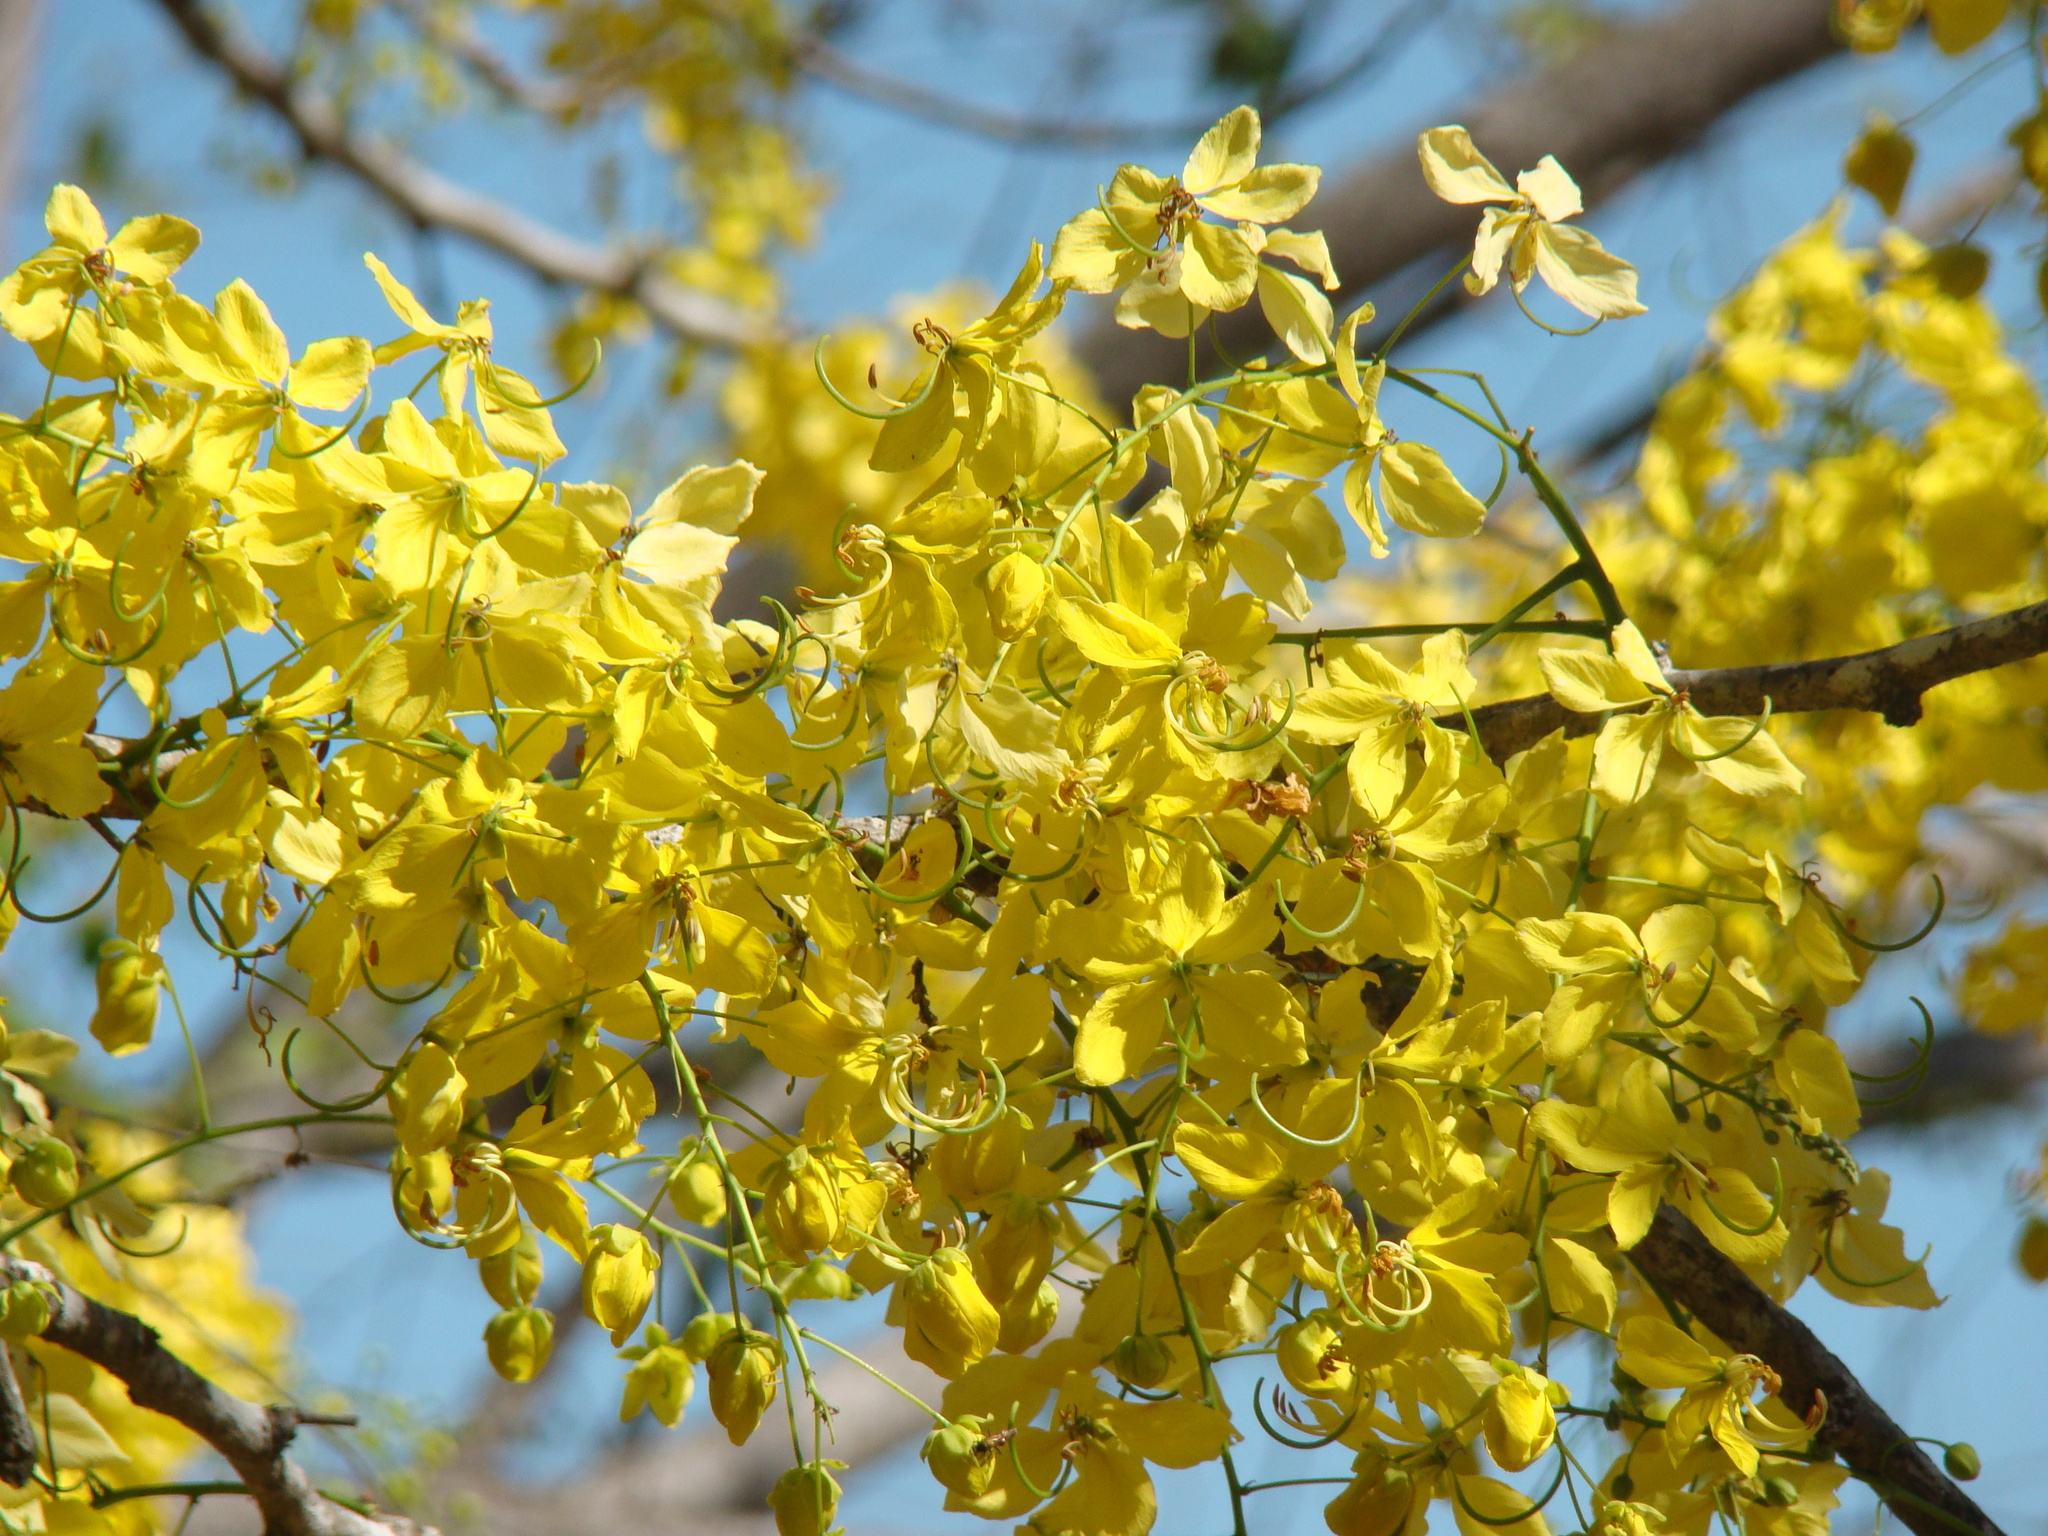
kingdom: Plantae
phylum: Tracheophyta
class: Magnoliopsida
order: Fabales
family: Fabaceae
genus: Cassia
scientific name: Cassia fistula
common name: Golden shower
